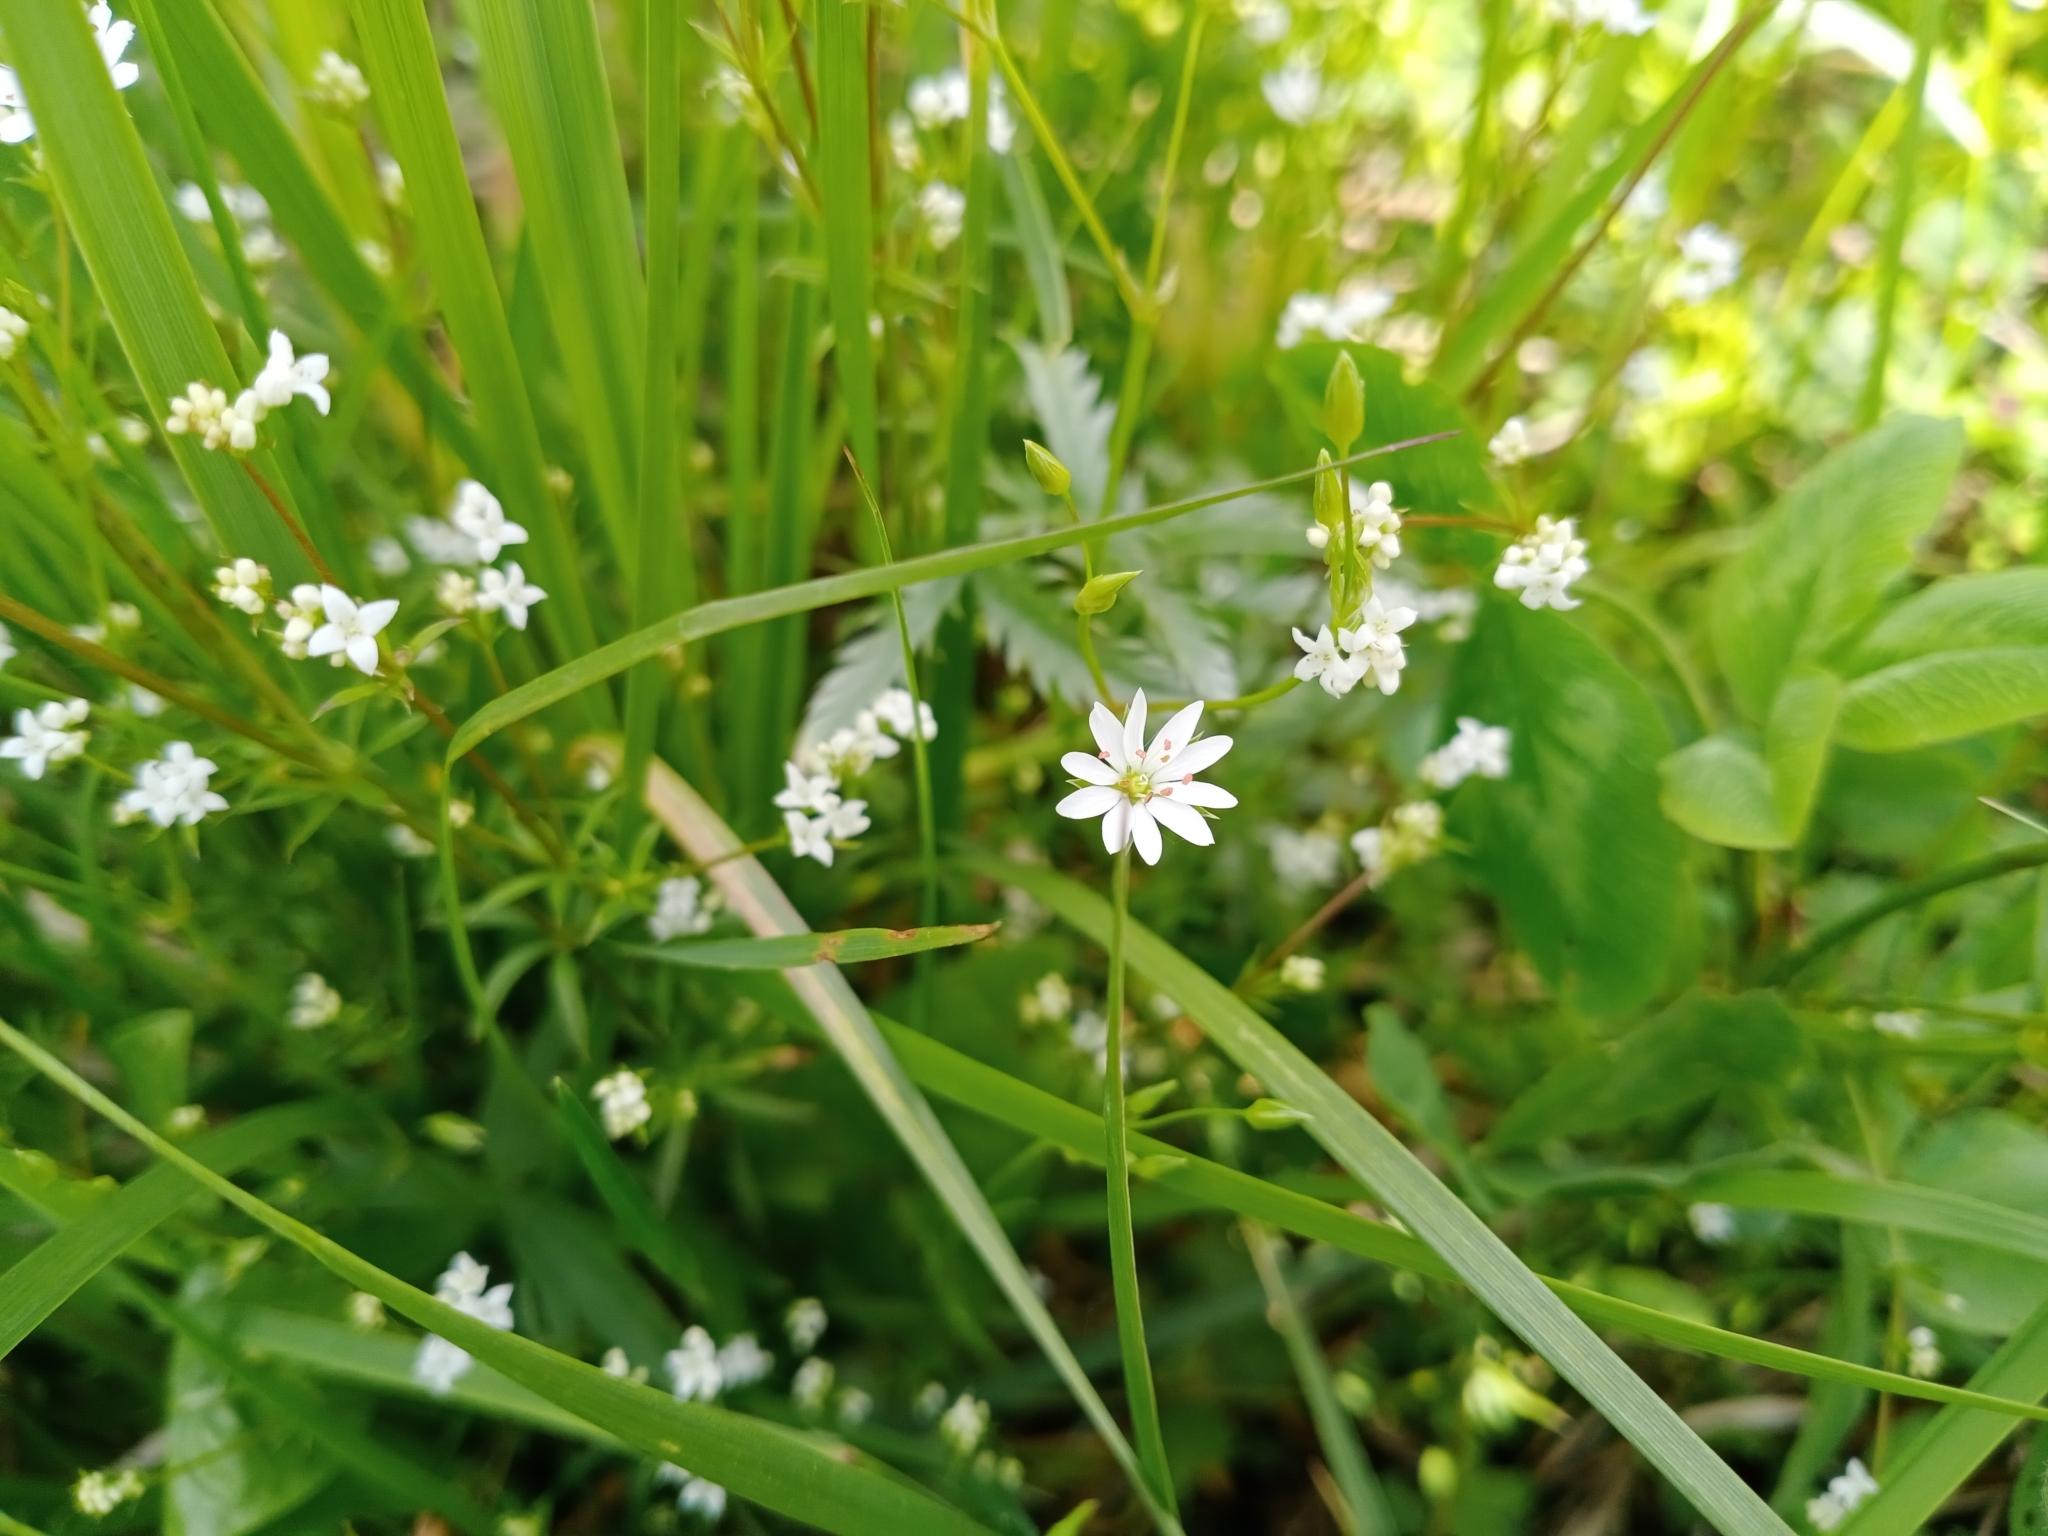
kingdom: Plantae
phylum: Tracheophyta
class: Magnoliopsida
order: Caryophyllales
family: Caryophyllaceae
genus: Stellaria
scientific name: Stellaria graminea
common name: Grass-like starwort
